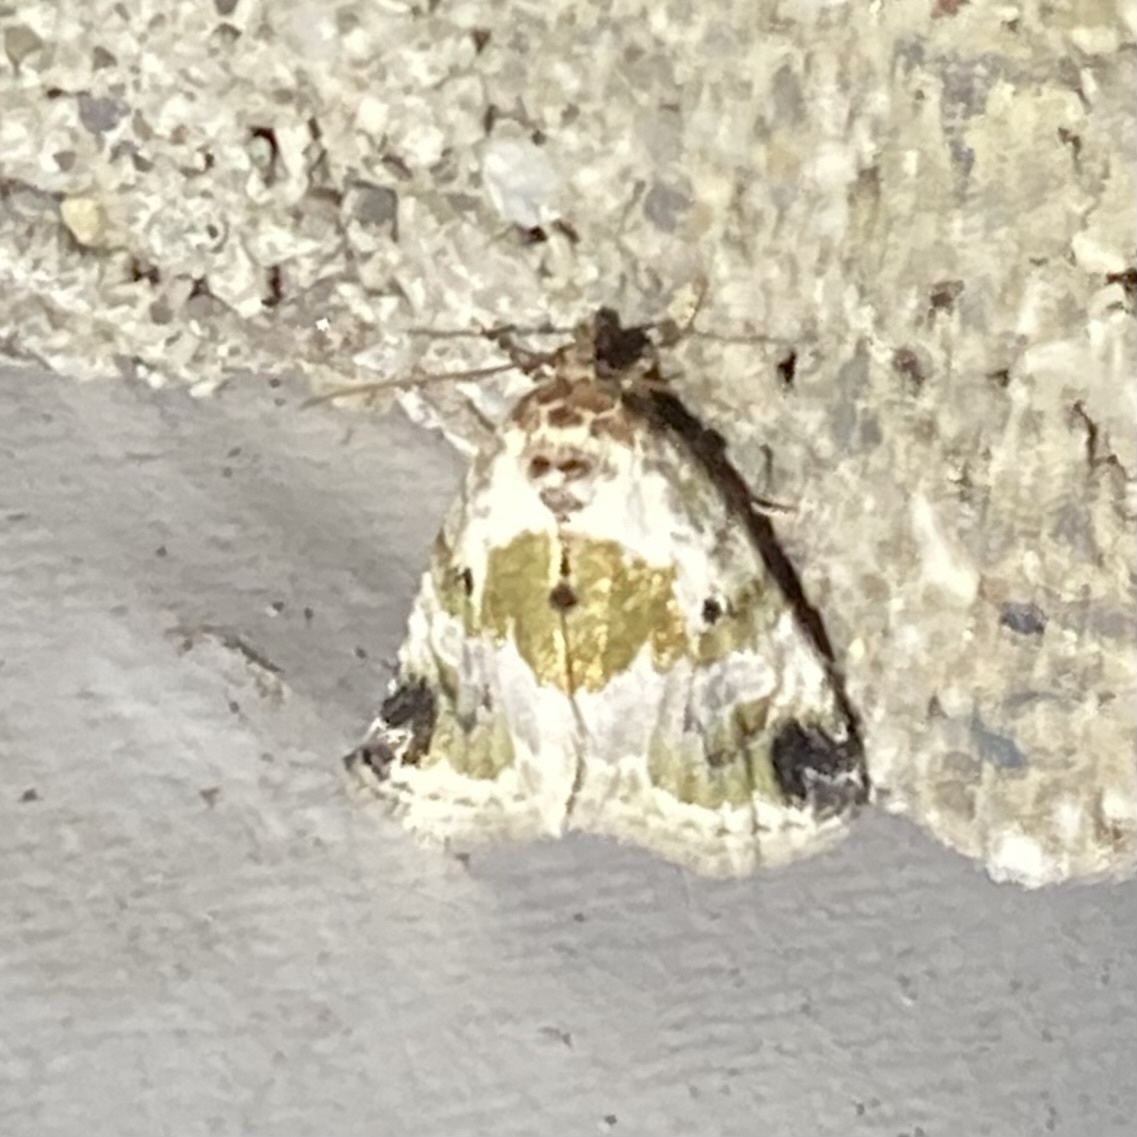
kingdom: Animalia
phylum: Arthropoda
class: Insecta
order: Lepidoptera
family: Noctuidae
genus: Maliattha
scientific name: Maliattha synochitis
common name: Black-dotted glyph
